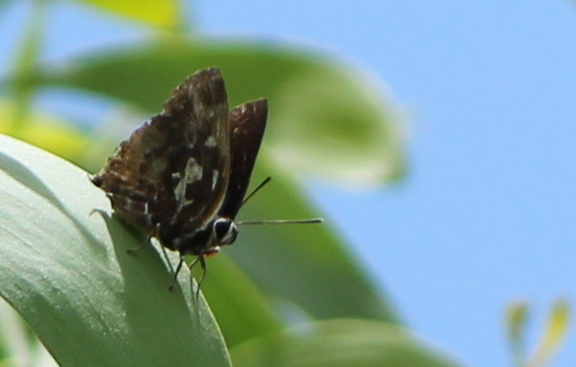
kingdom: Animalia
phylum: Arthropoda
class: Insecta
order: Lepidoptera
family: Lycaenidae
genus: Iraota
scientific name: Iraota timoleon
